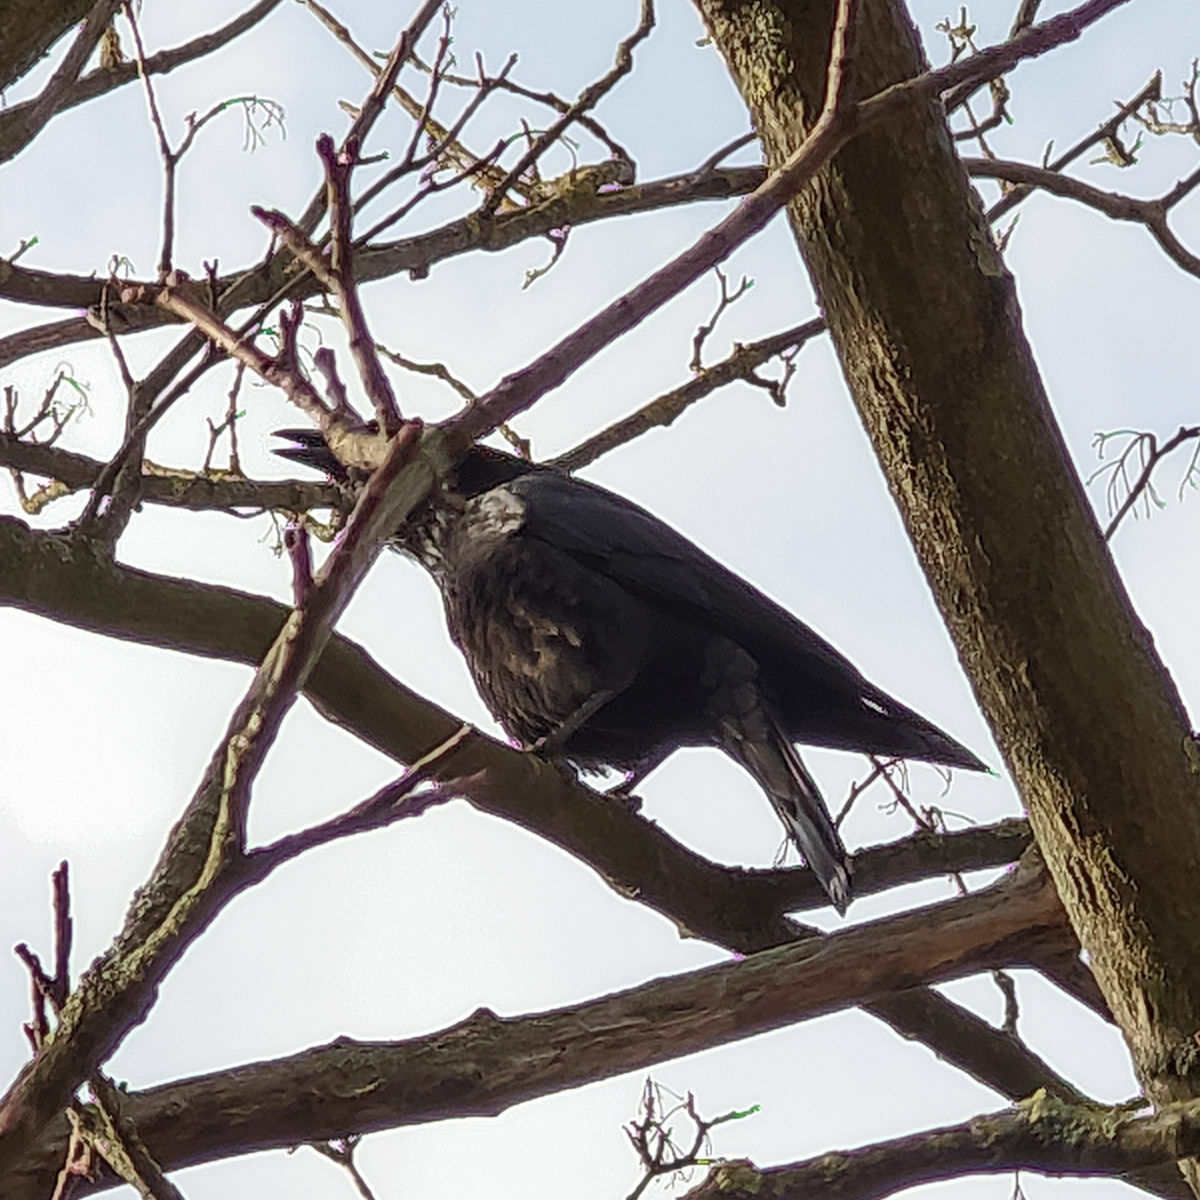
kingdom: Animalia
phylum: Chordata
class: Aves
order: Passeriformes
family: Corvidae
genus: Corvus
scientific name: Corvus corone
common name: Carrion crow
